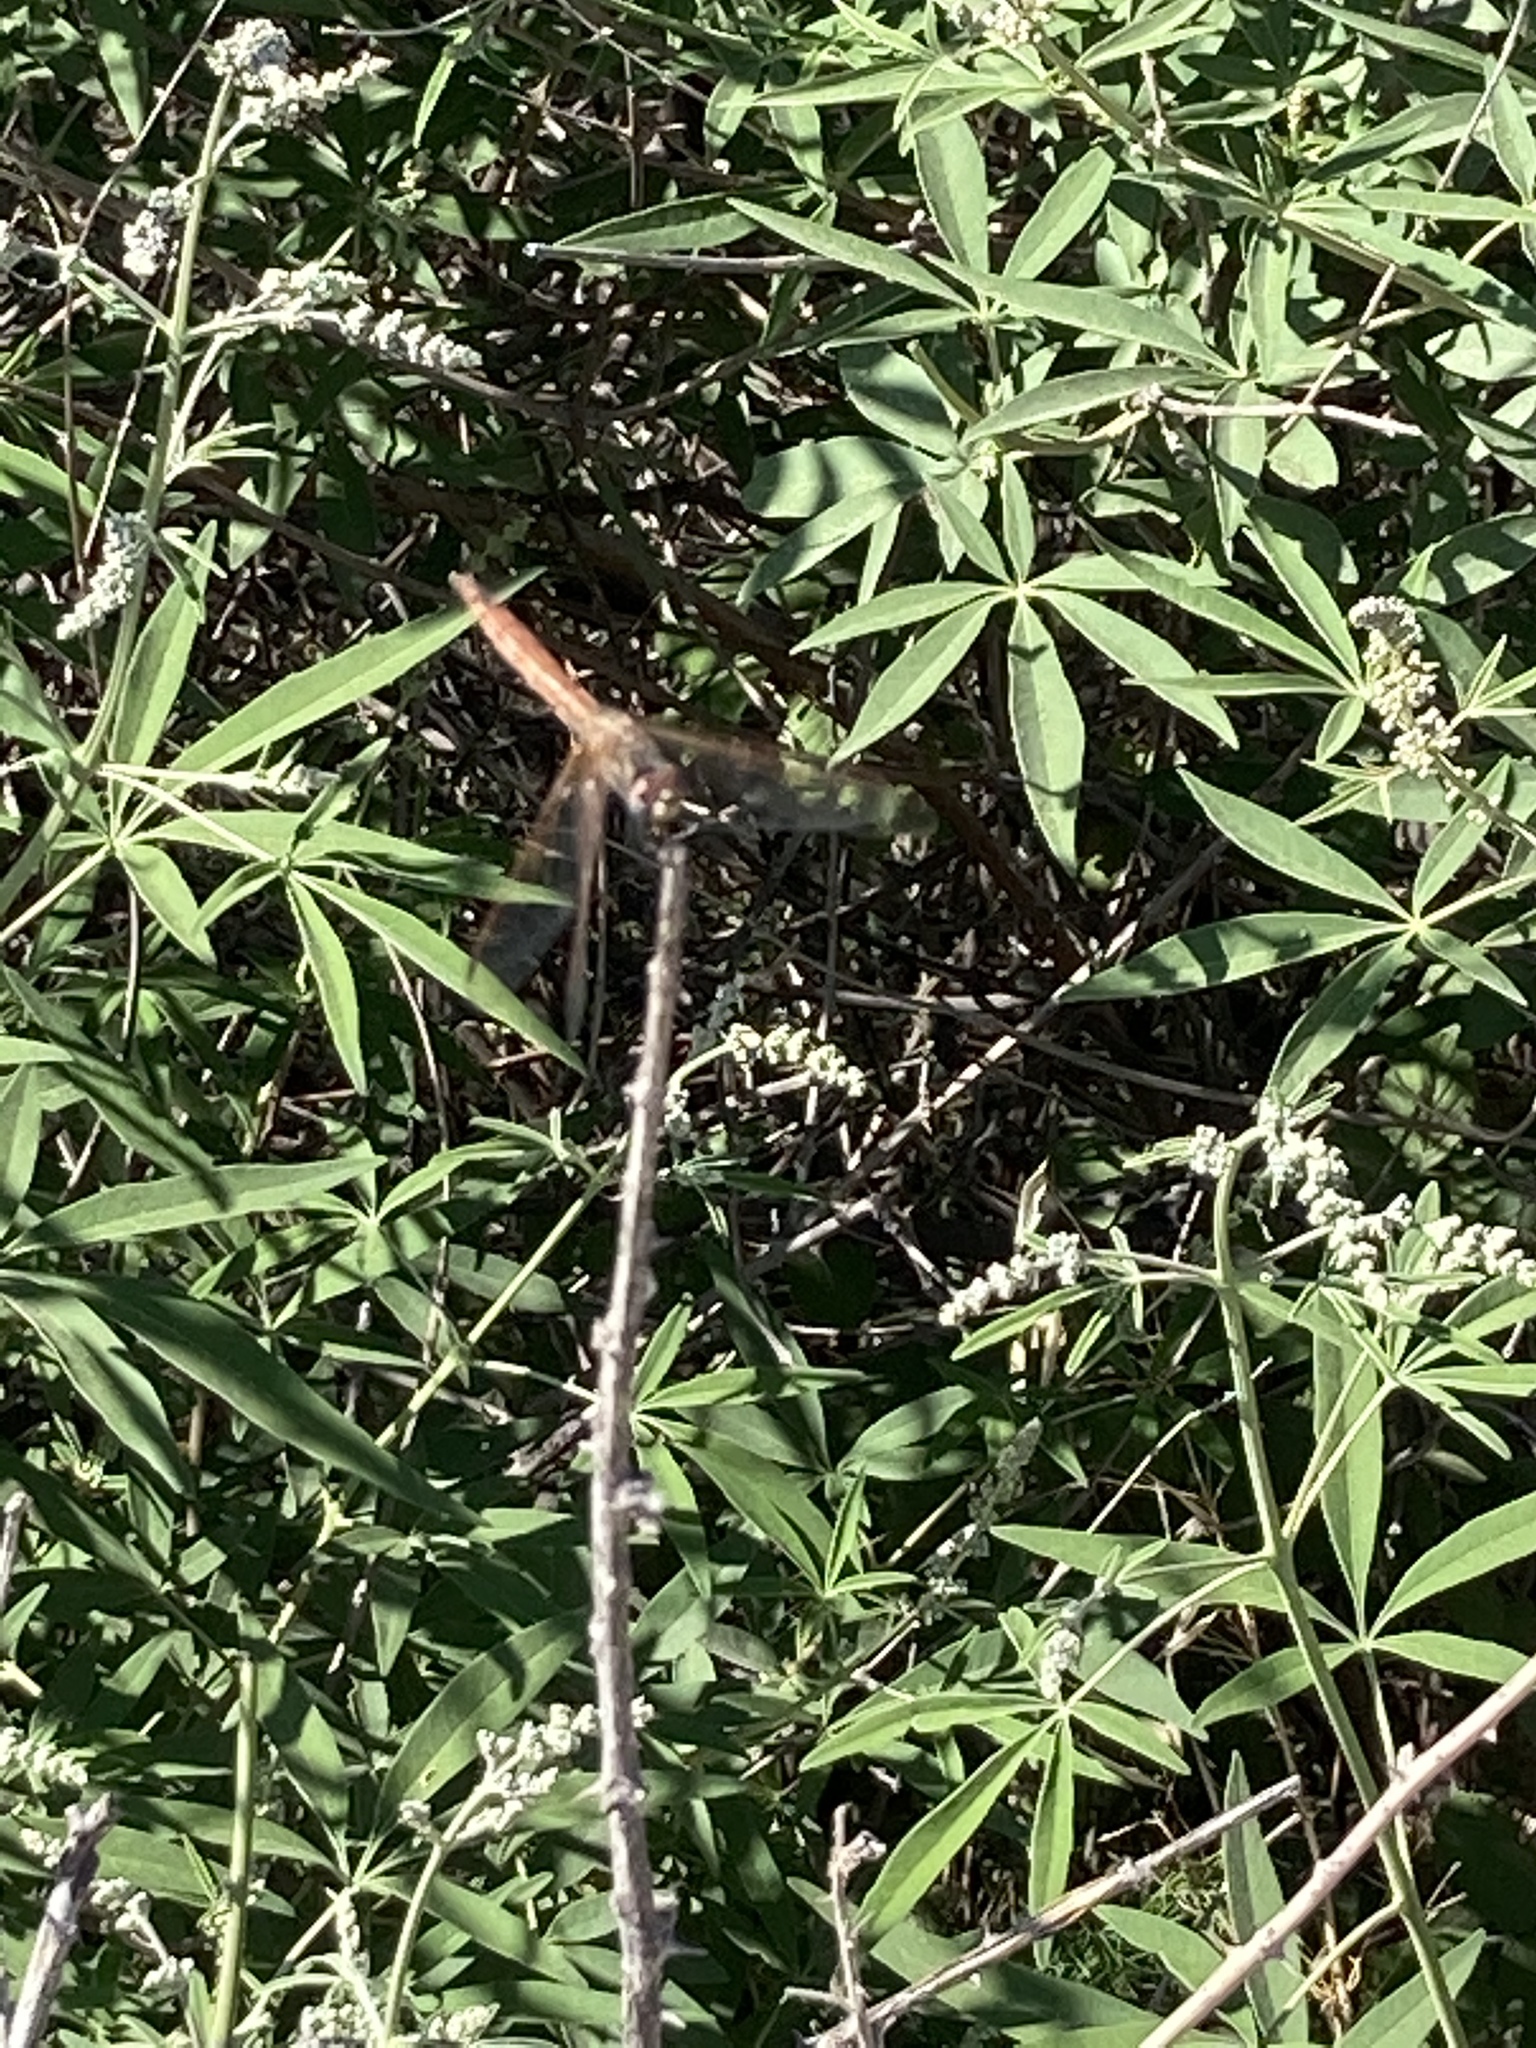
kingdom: Animalia
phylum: Arthropoda
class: Insecta
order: Odonata
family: Libellulidae
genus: Trithemis
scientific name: Trithemis annulata
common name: Violet dropwing
